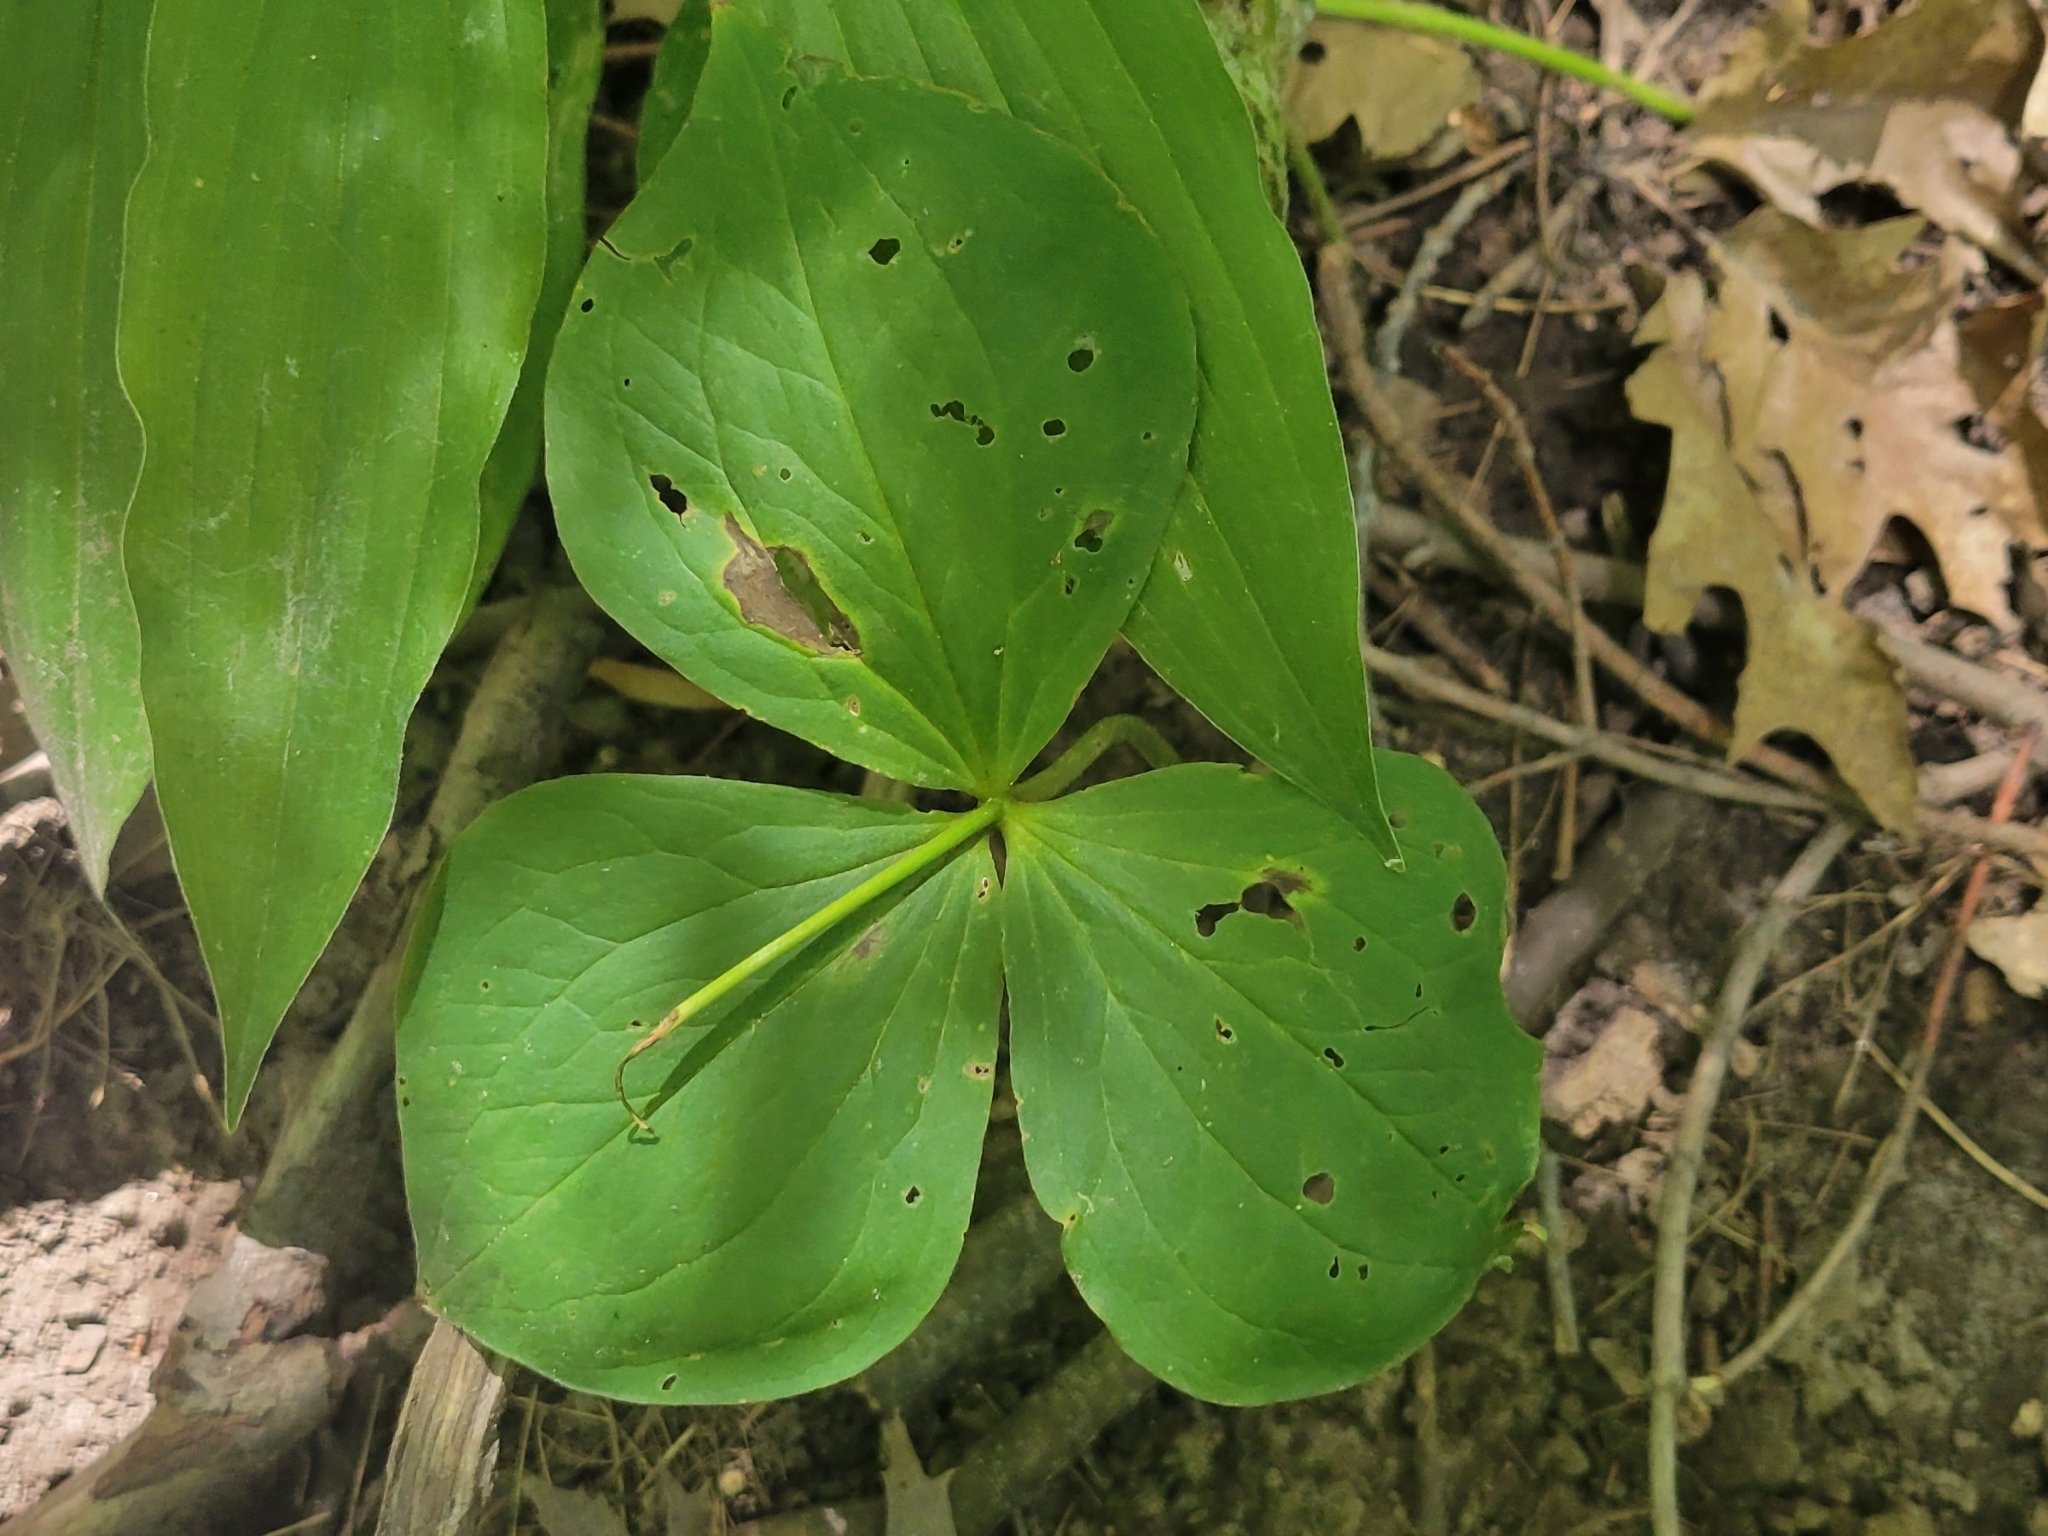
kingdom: Plantae
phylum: Tracheophyta
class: Liliopsida
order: Liliales
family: Melanthiaceae
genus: Trillium
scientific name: Trillium grandiflorum
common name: Great white trillium
